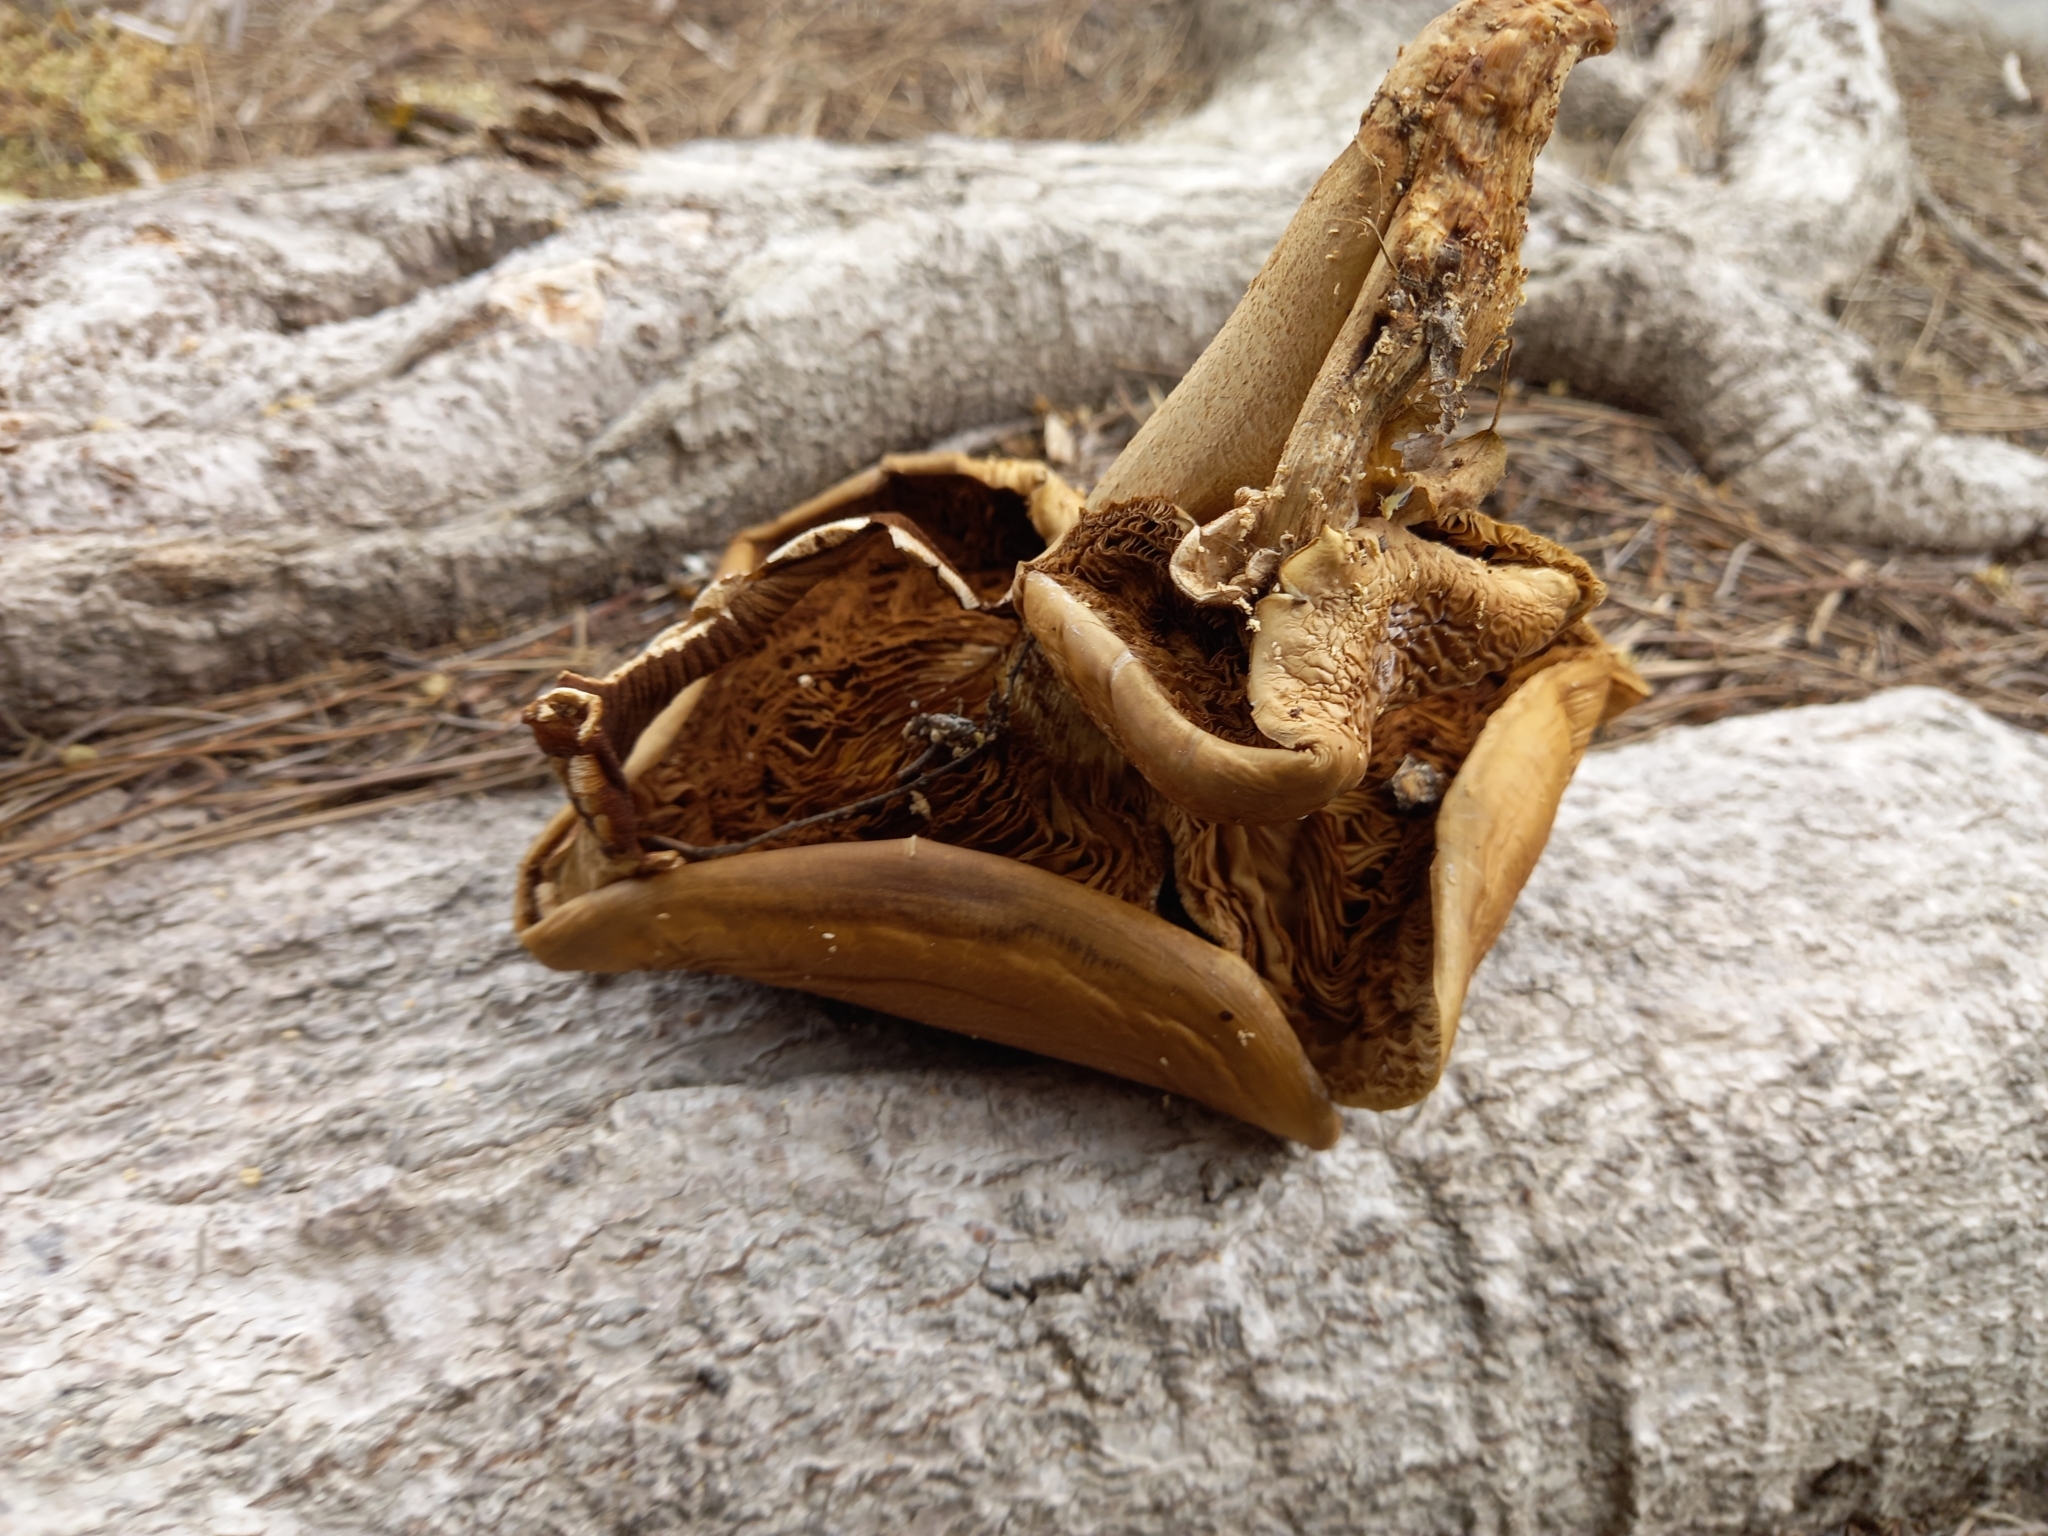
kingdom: Fungi
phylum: Basidiomycota
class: Agaricomycetes
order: Agaricales
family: Tubariaceae
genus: Cyclocybe
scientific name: Cyclocybe parasitica
